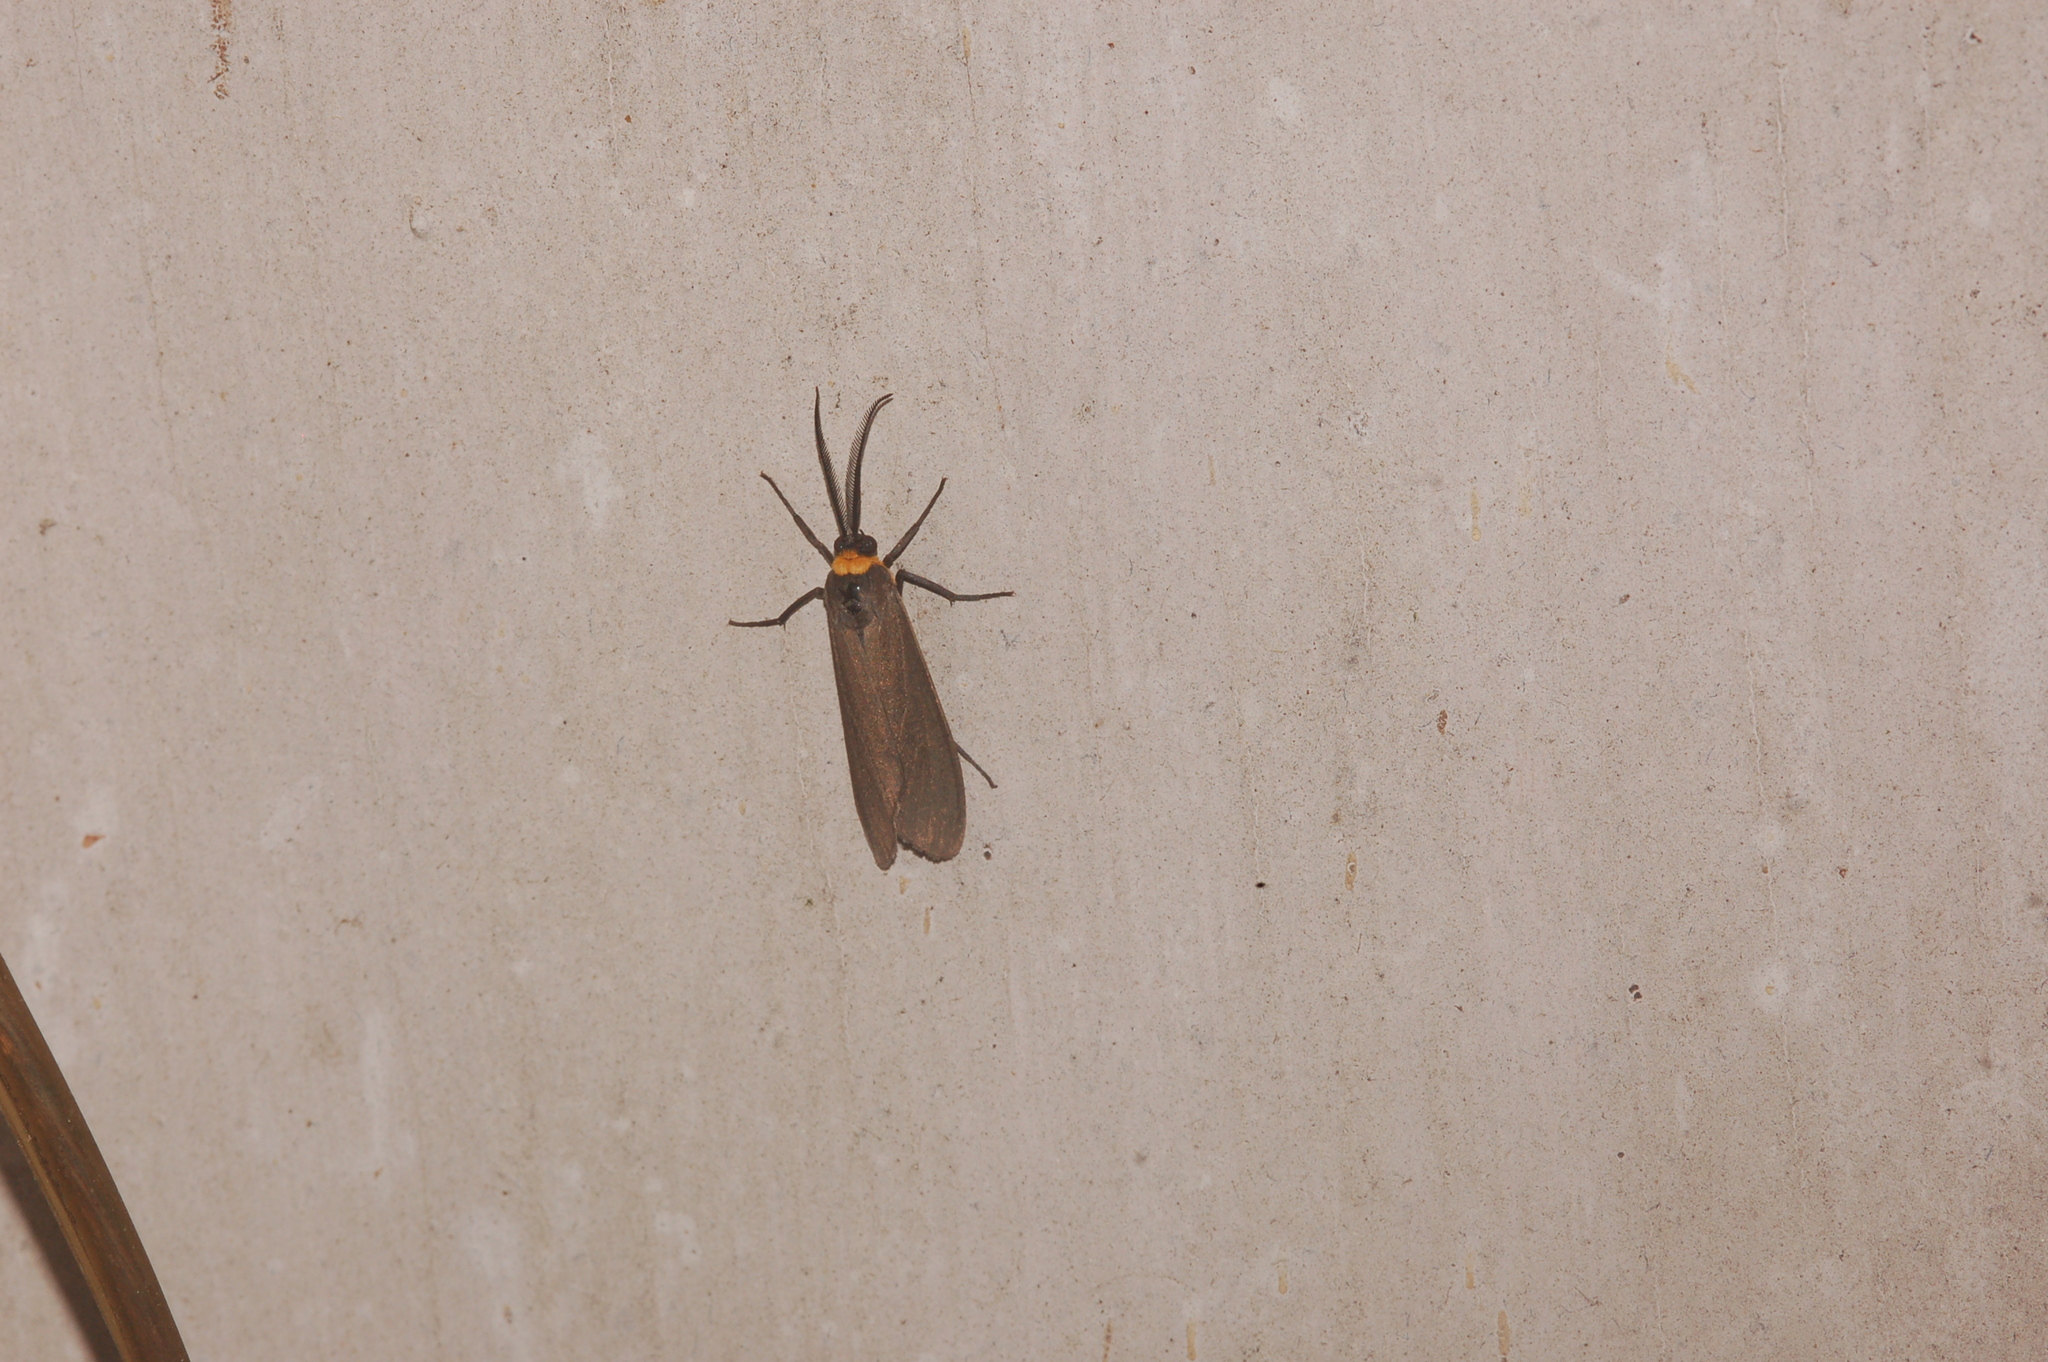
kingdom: Animalia
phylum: Arthropoda
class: Insecta
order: Lepidoptera
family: Erebidae
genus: Cisseps
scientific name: Cisseps fulvicollis
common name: Yellow-collared scape moth
